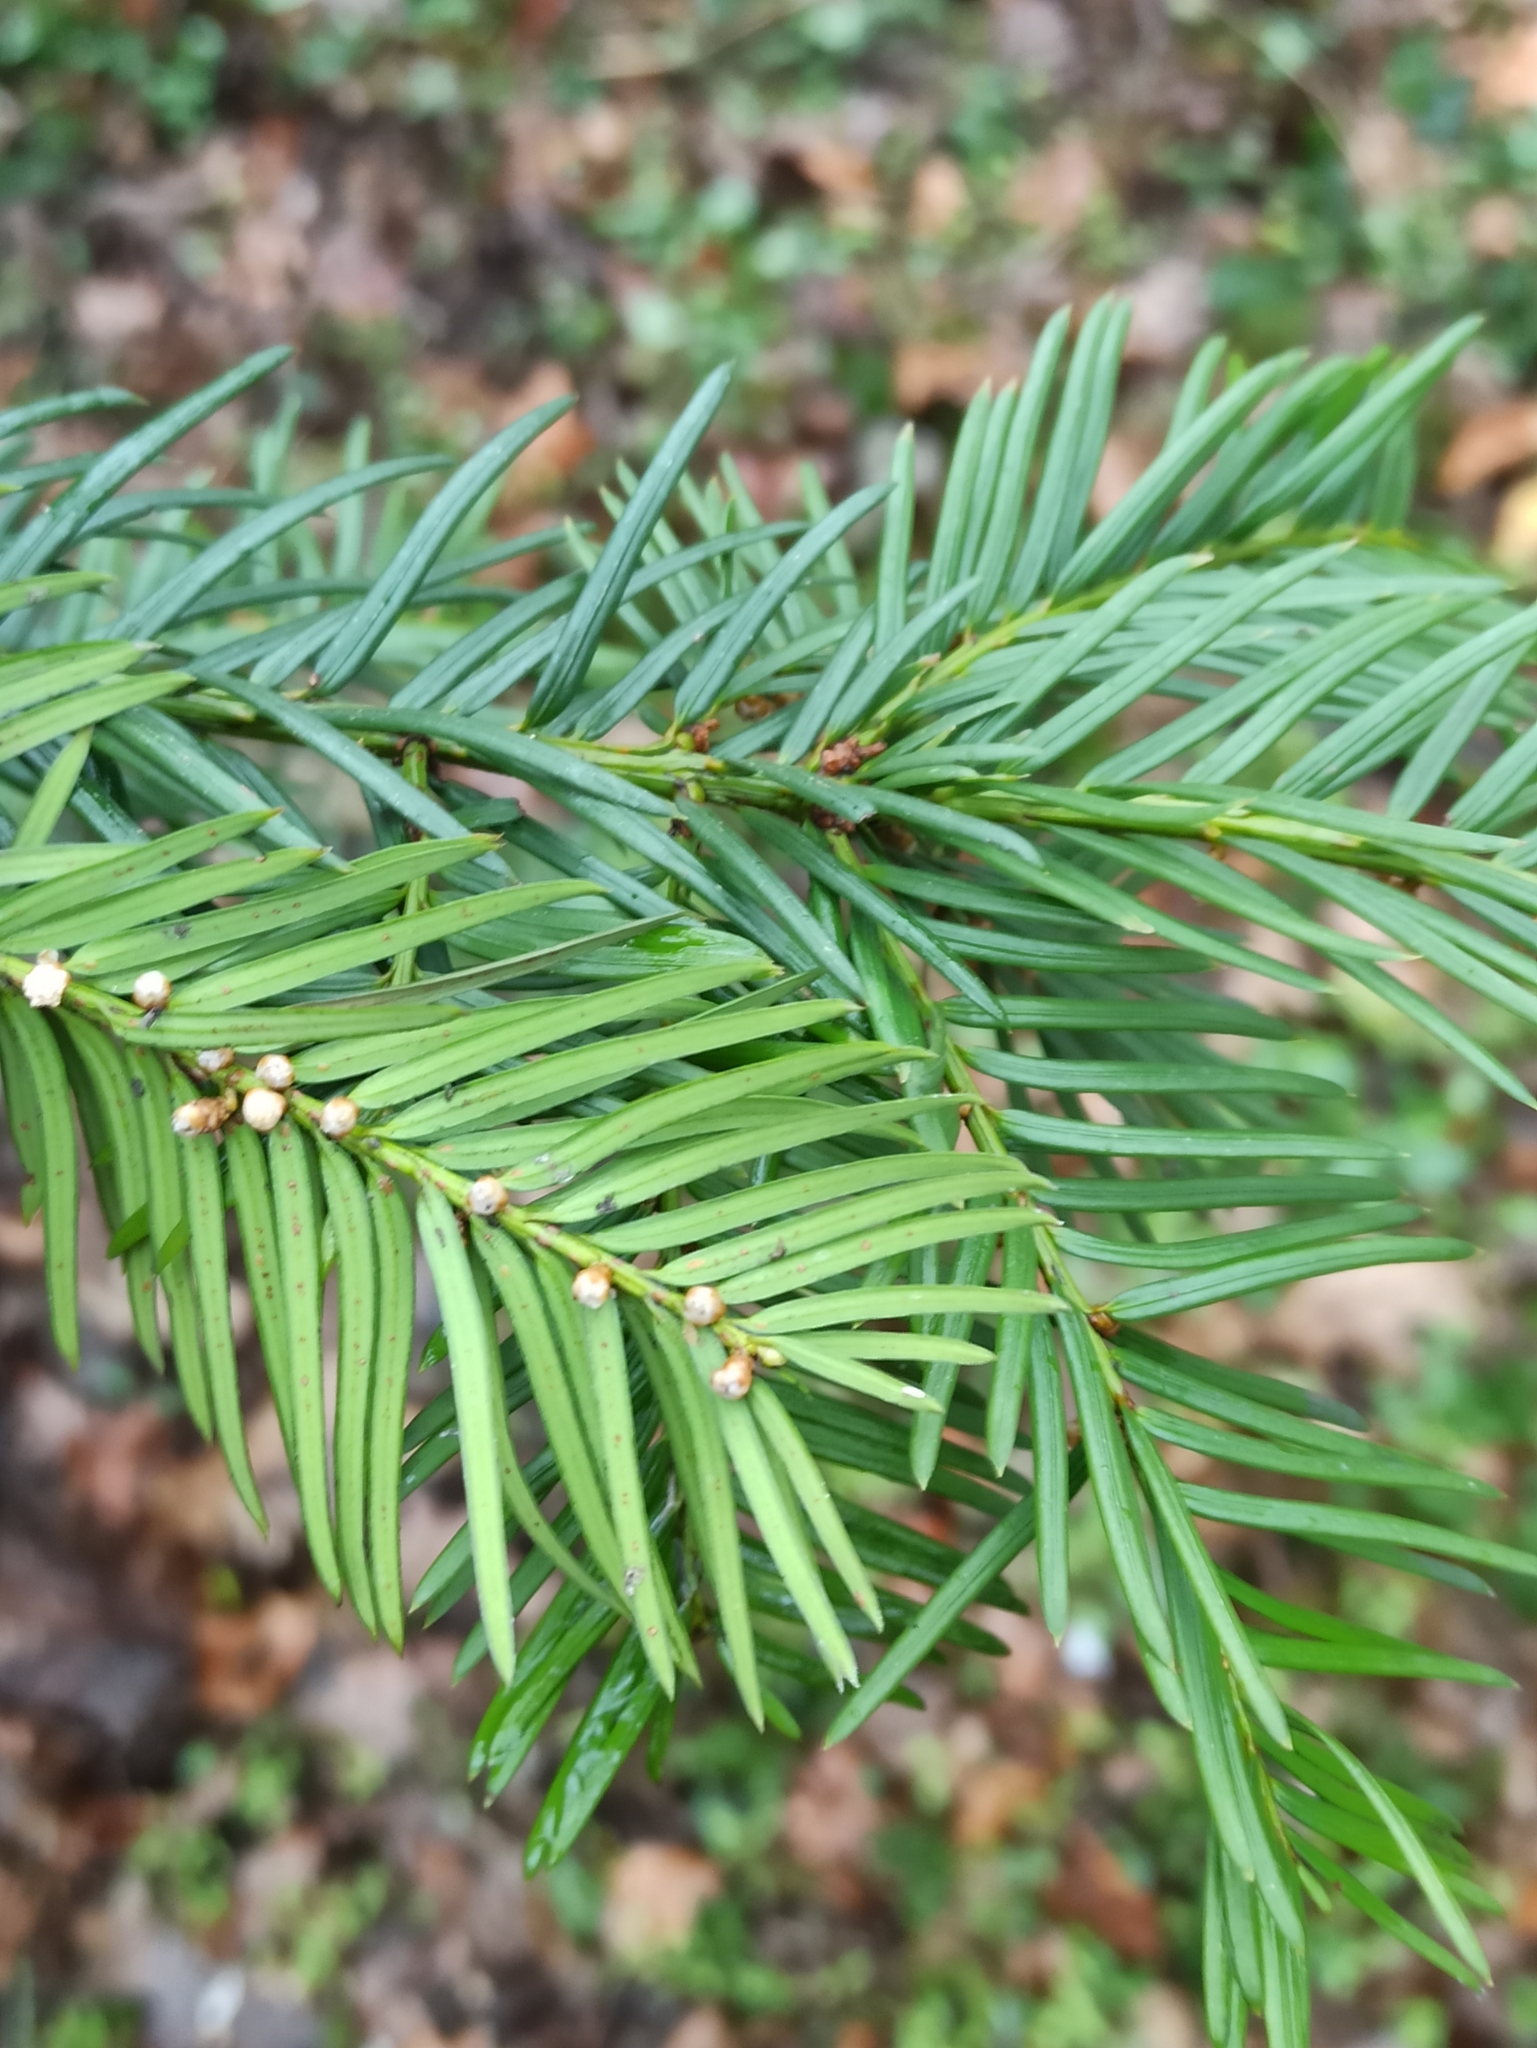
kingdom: Plantae
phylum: Tracheophyta
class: Pinopsida
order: Pinales
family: Taxaceae
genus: Taxus
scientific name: Taxus baccata
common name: Yew
